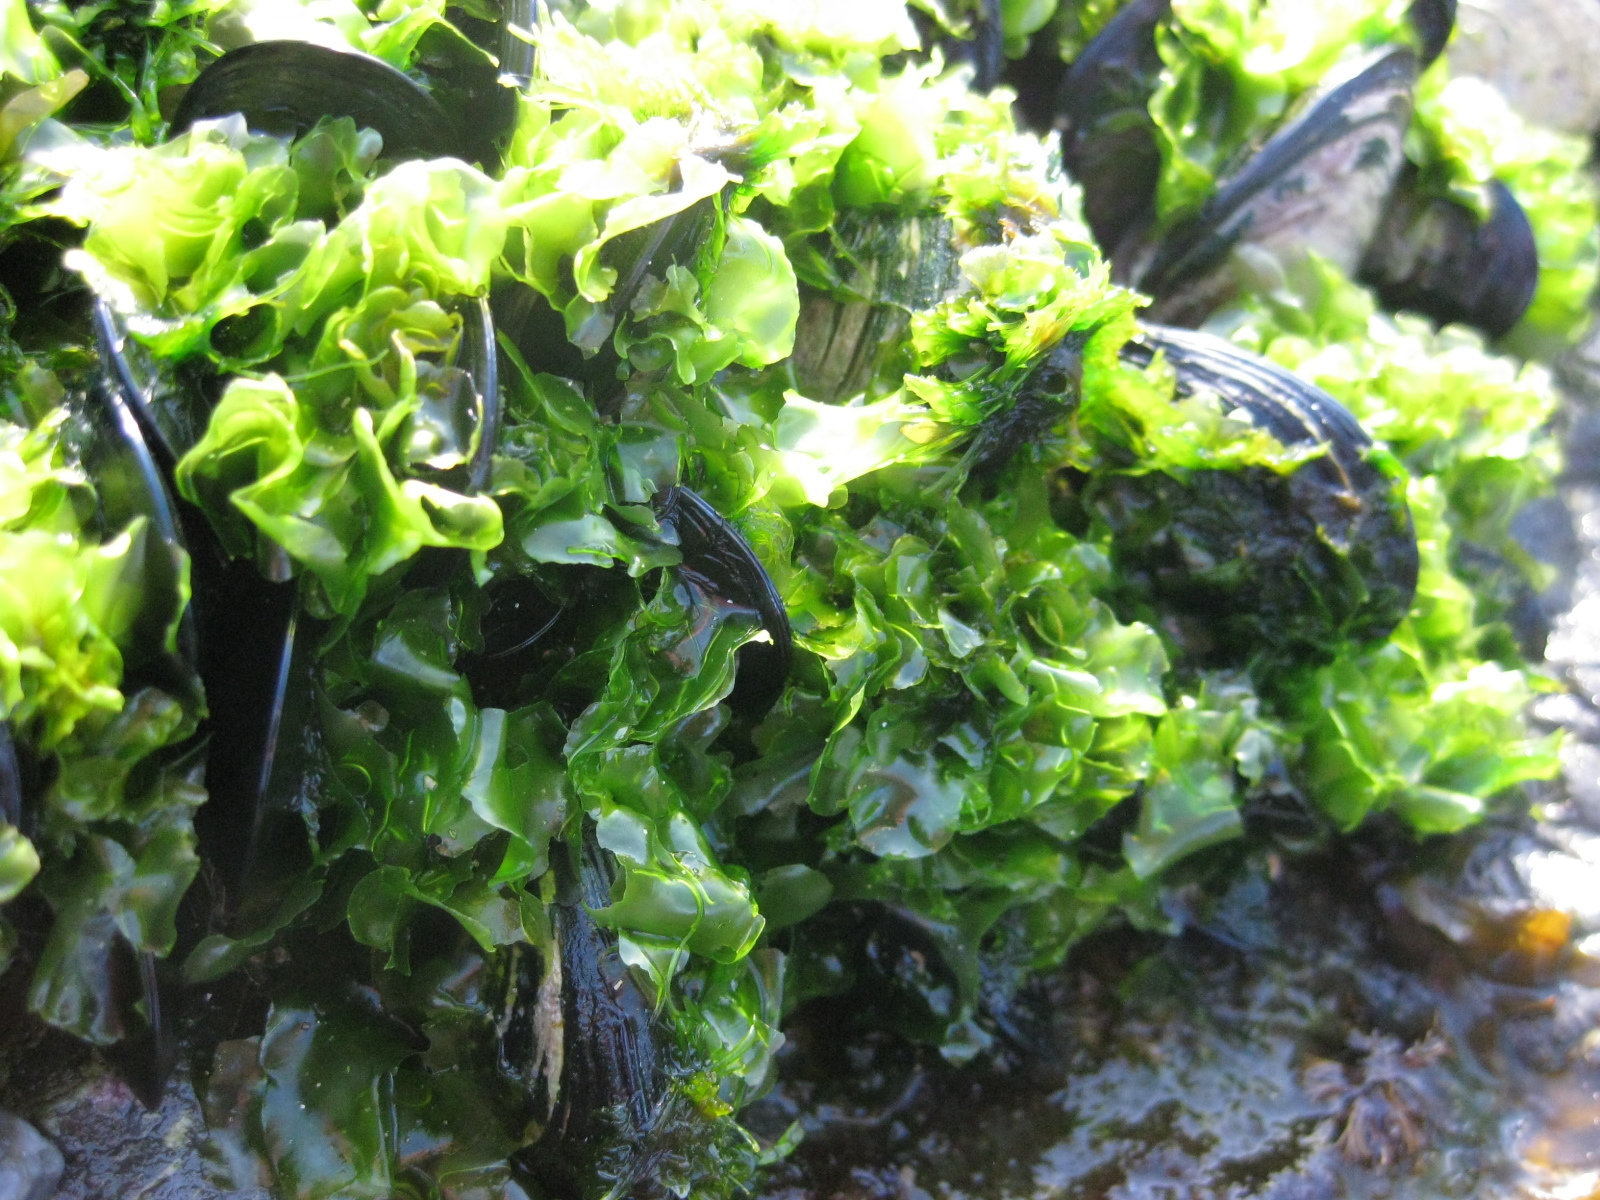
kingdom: Plantae
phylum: Chlorophyta
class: Ulvophyceae
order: Ulvales
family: Ulvaceae
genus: Ulva
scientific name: Ulva
